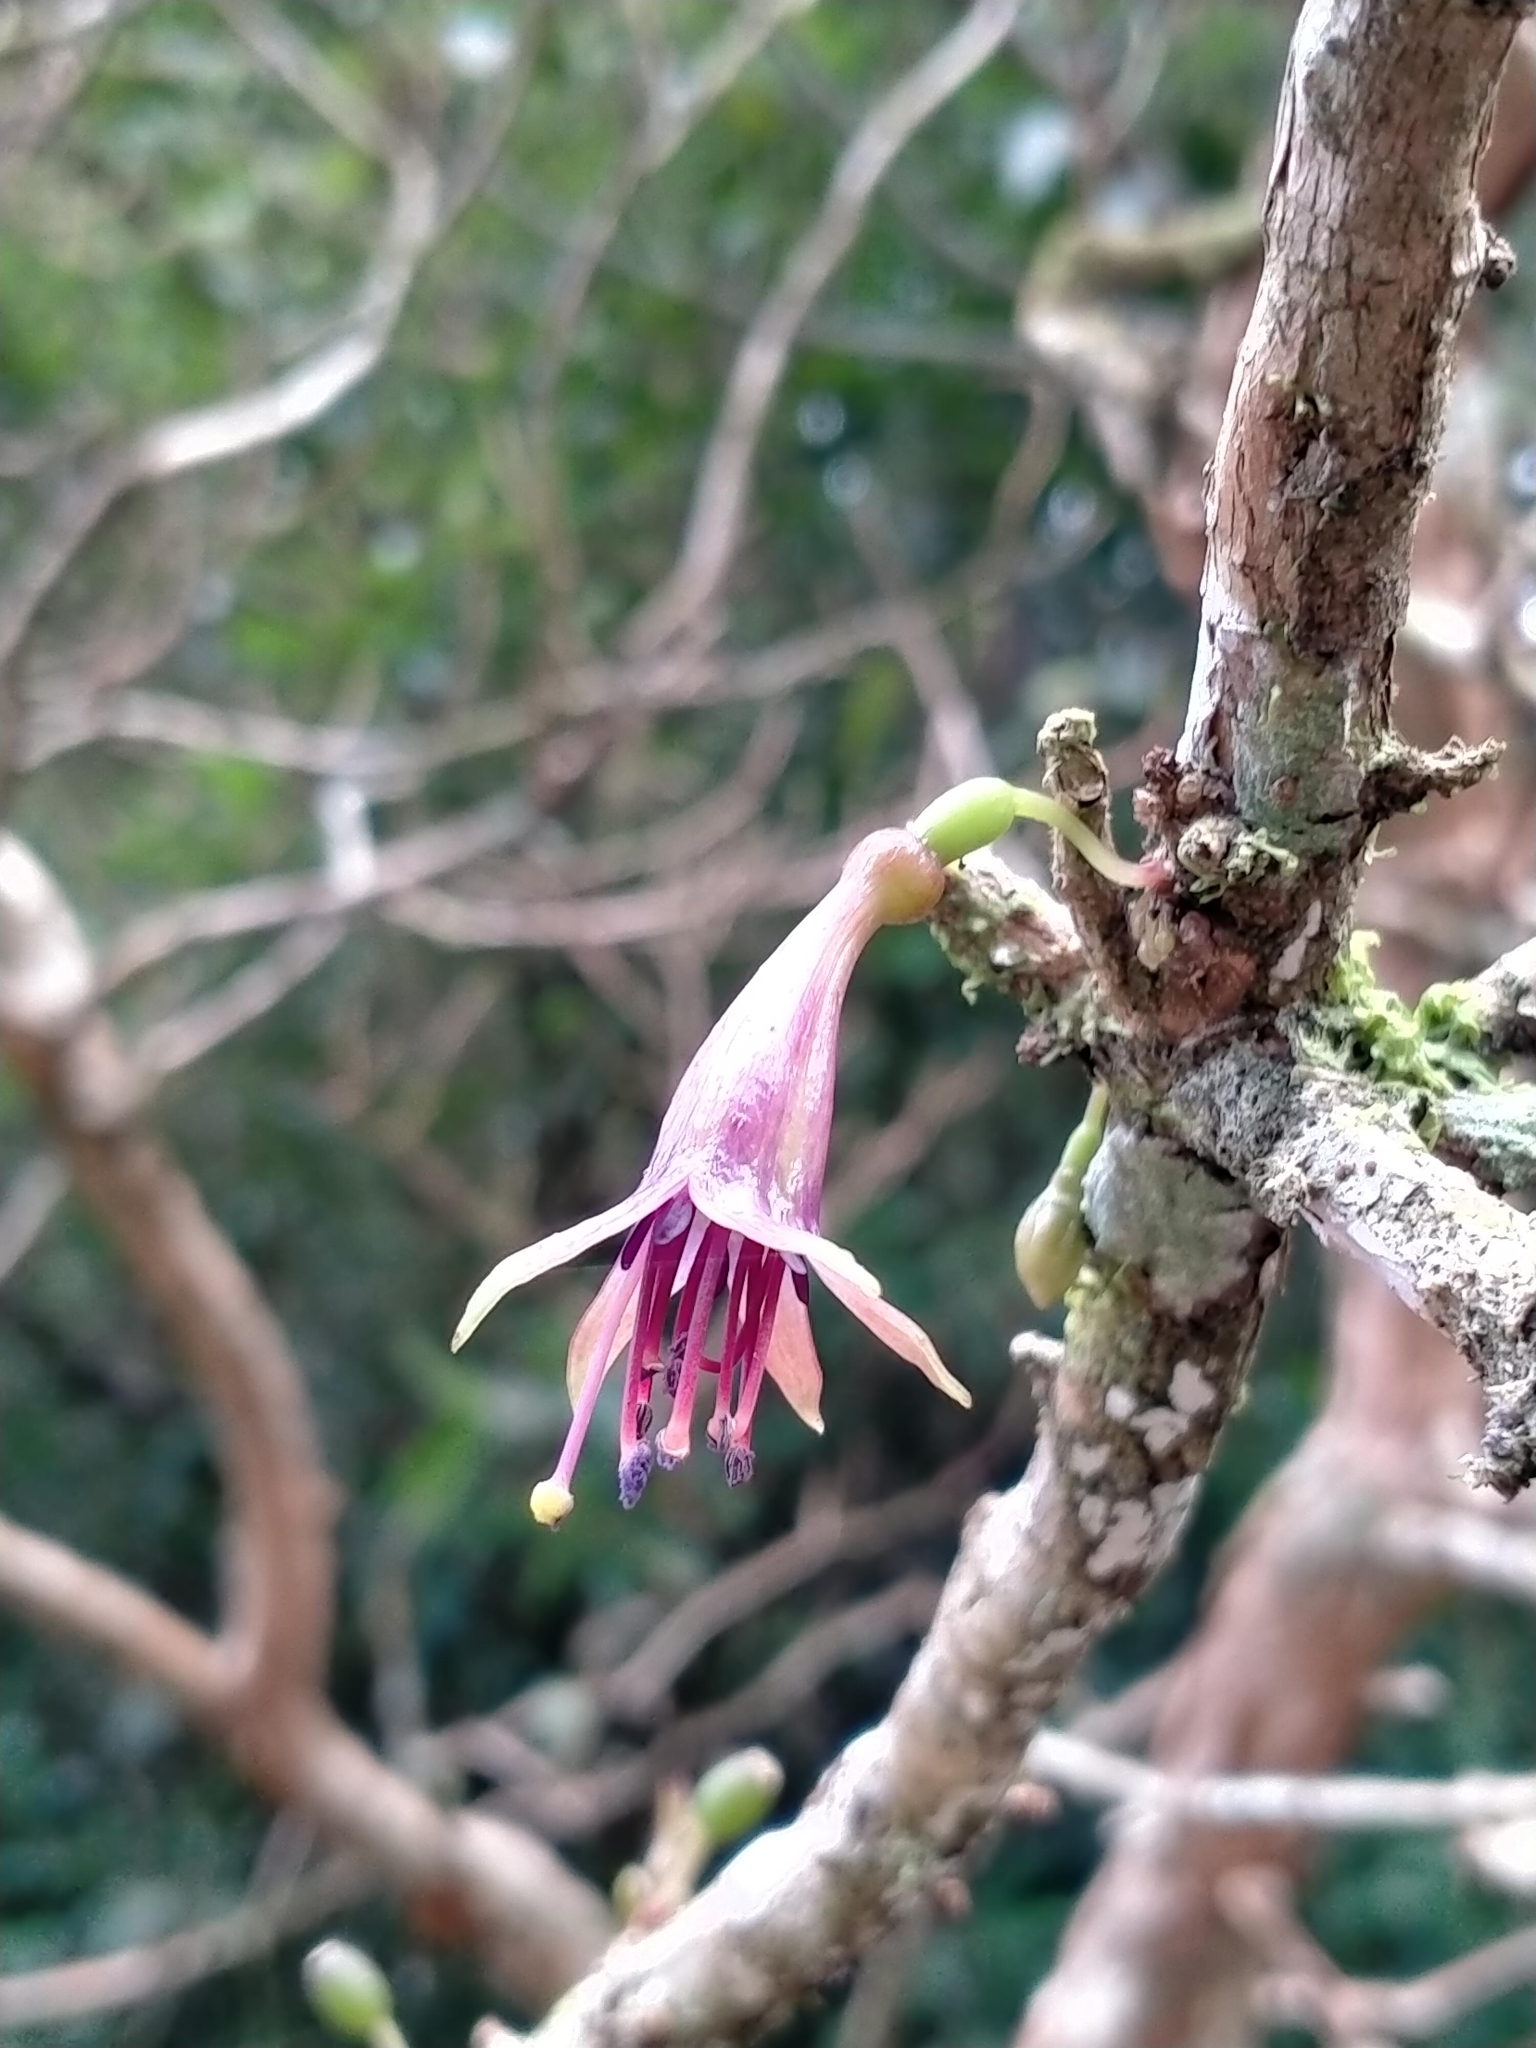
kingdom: Plantae
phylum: Tracheophyta
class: Magnoliopsida
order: Myrtales
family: Onagraceae
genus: Fuchsia
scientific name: Fuchsia excorticata
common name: Tree fuchsia
